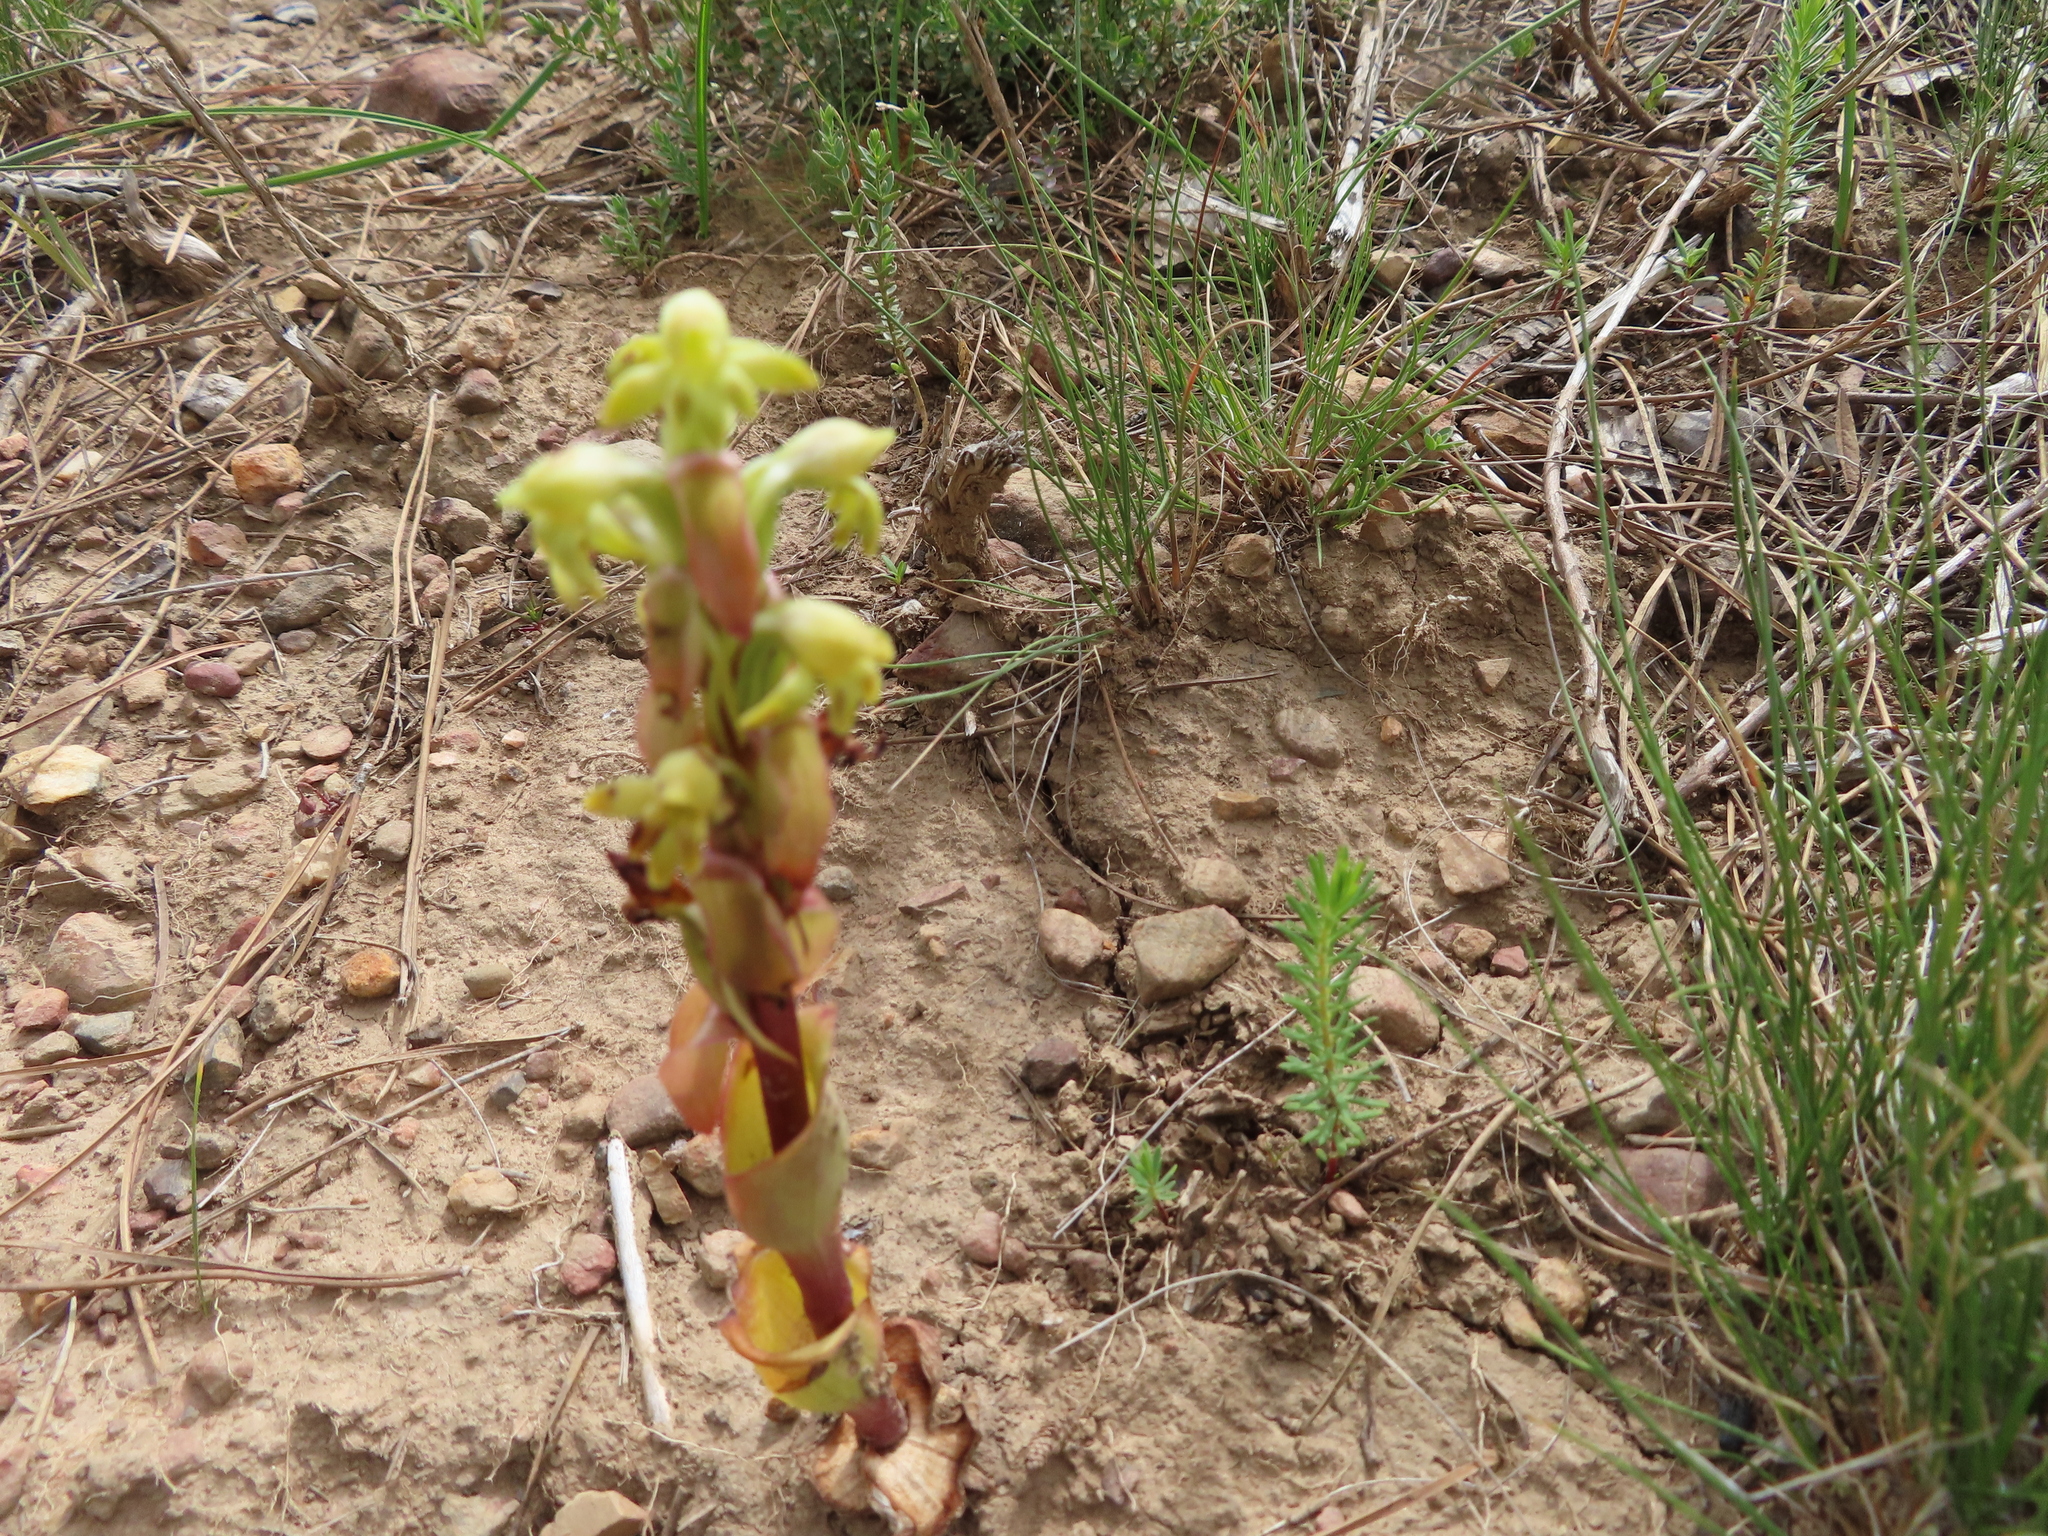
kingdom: Plantae
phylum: Tracheophyta
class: Liliopsida
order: Asparagales
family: Orchidaceae
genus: Satyrium
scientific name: Satyrium bicorne
